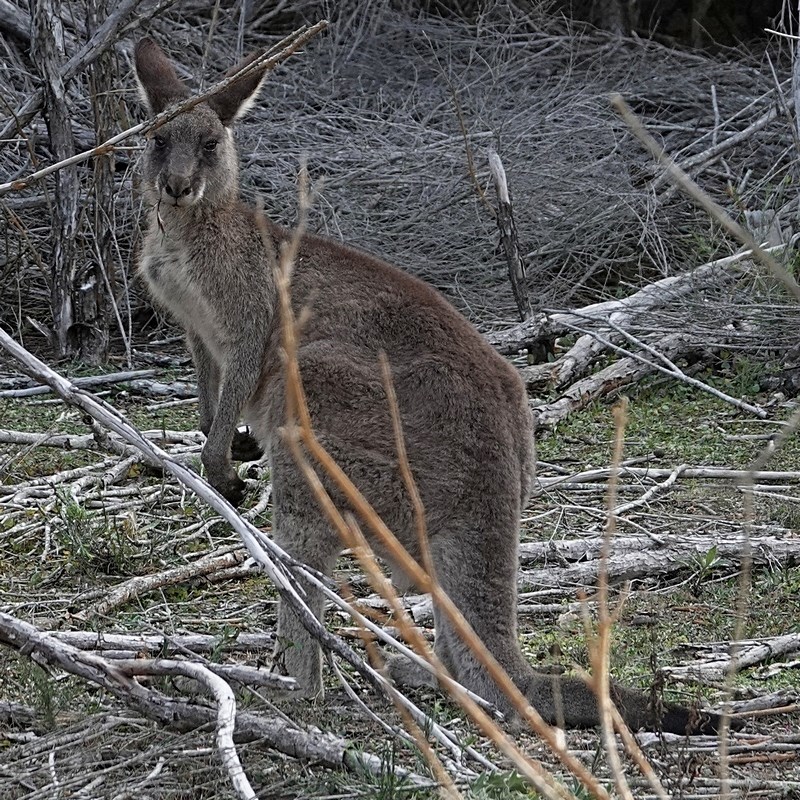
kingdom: Animalia
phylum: Chordata
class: Mammalia
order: Diprotodontia
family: Macropodidae
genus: Macropus
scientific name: Macropus giganteus
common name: Eastern grey kangaroo
